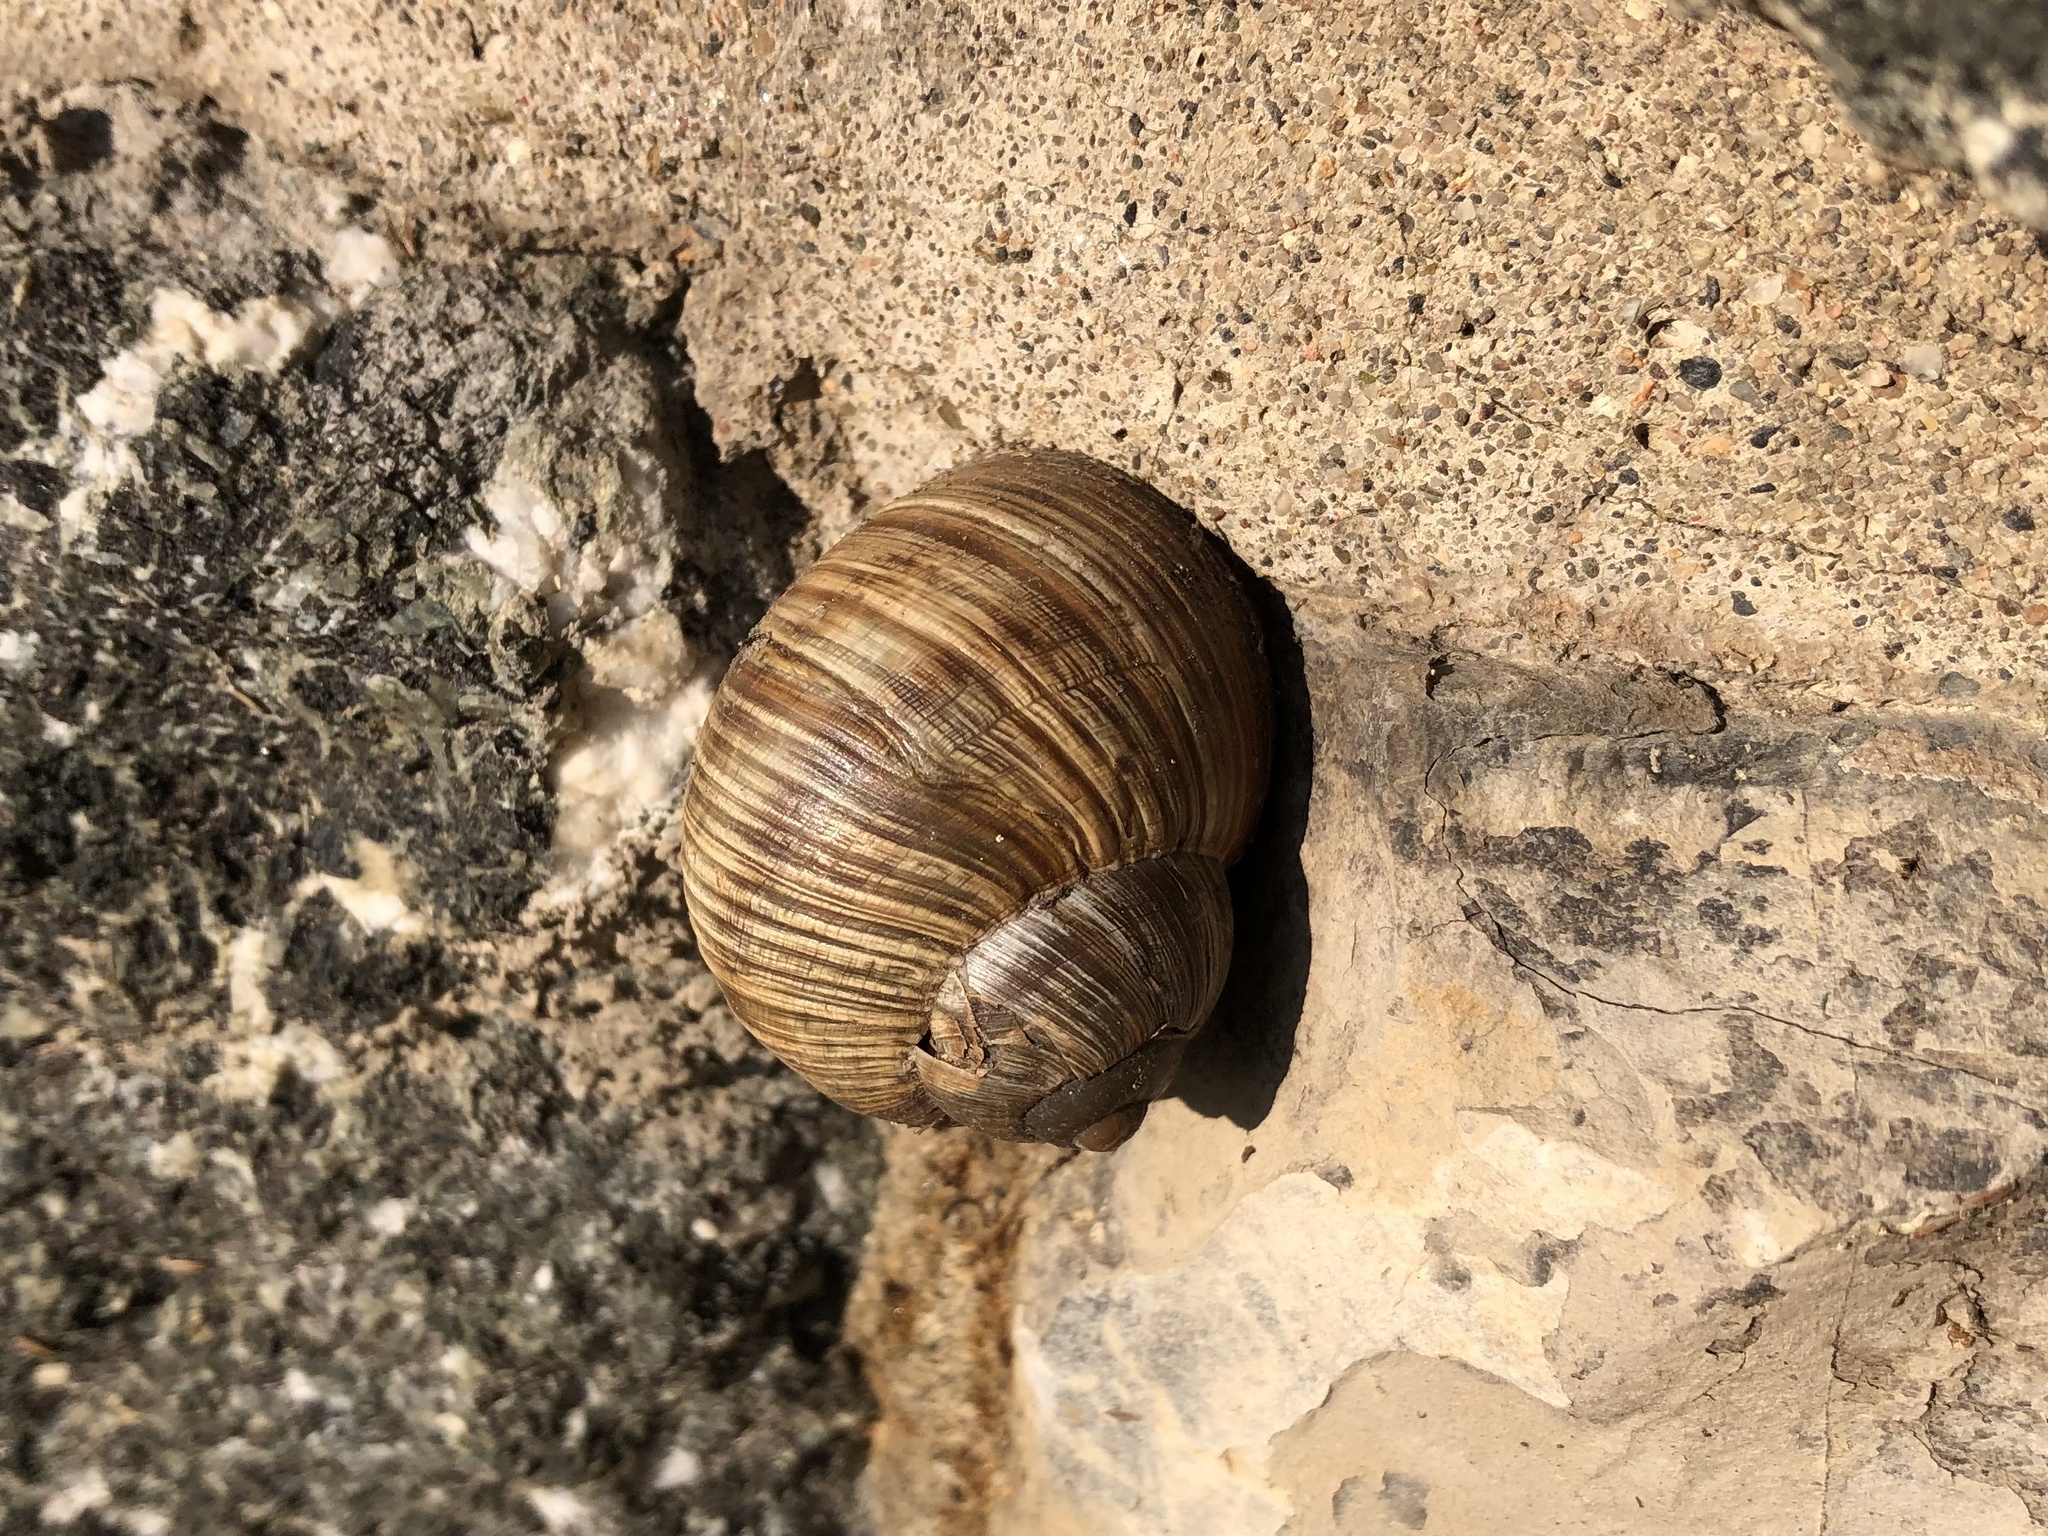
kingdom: Animalia
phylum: Mollusca
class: Gastropoda
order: Stylommatophora
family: Helicidae
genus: Helix
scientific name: Helix pomatia
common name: Roman snail
